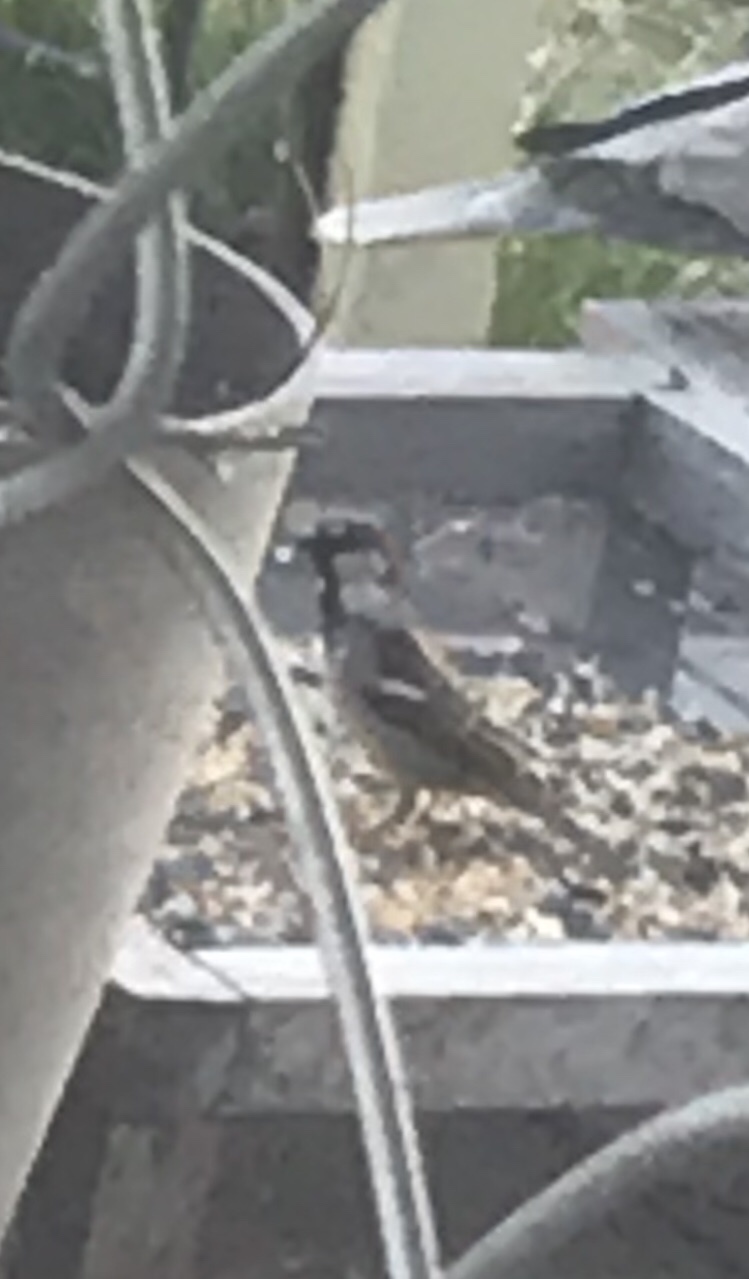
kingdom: Animalia
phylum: Chordata
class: Aves
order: Passeriformes
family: Passeridae
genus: Passer
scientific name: Passer domesticus
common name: House sparrow
